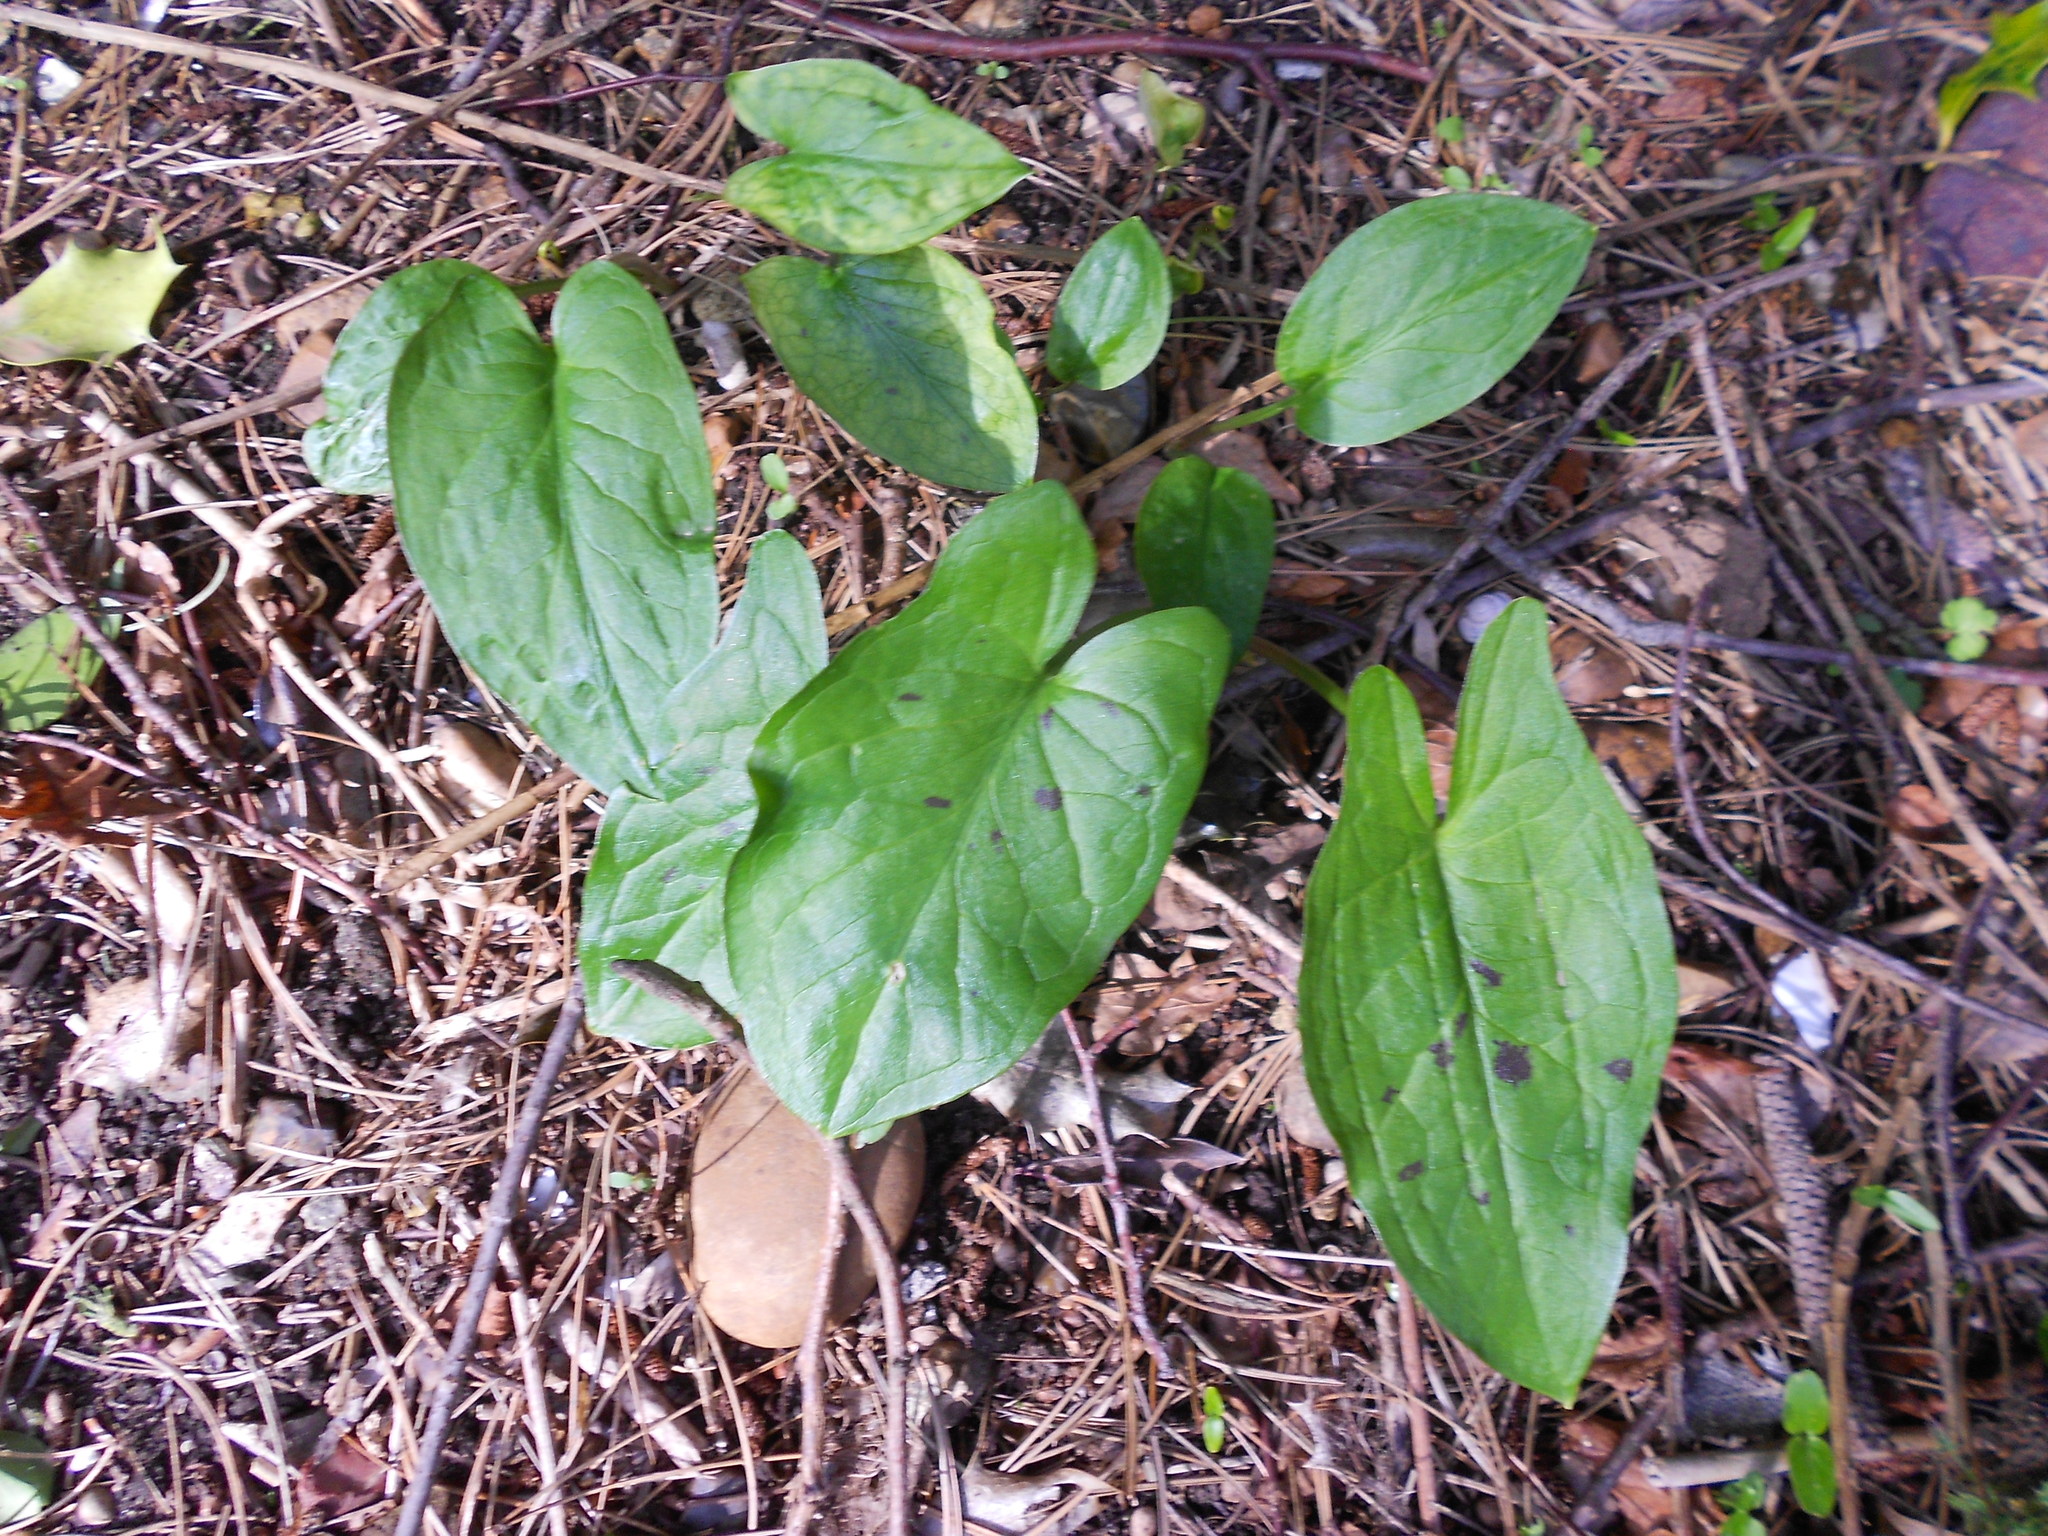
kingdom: Plantae
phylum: Tracheophyta
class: Liliopsida
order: Alismatales
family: Araceae
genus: Arum
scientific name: Arum maculatum
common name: Lords-and-ladies
